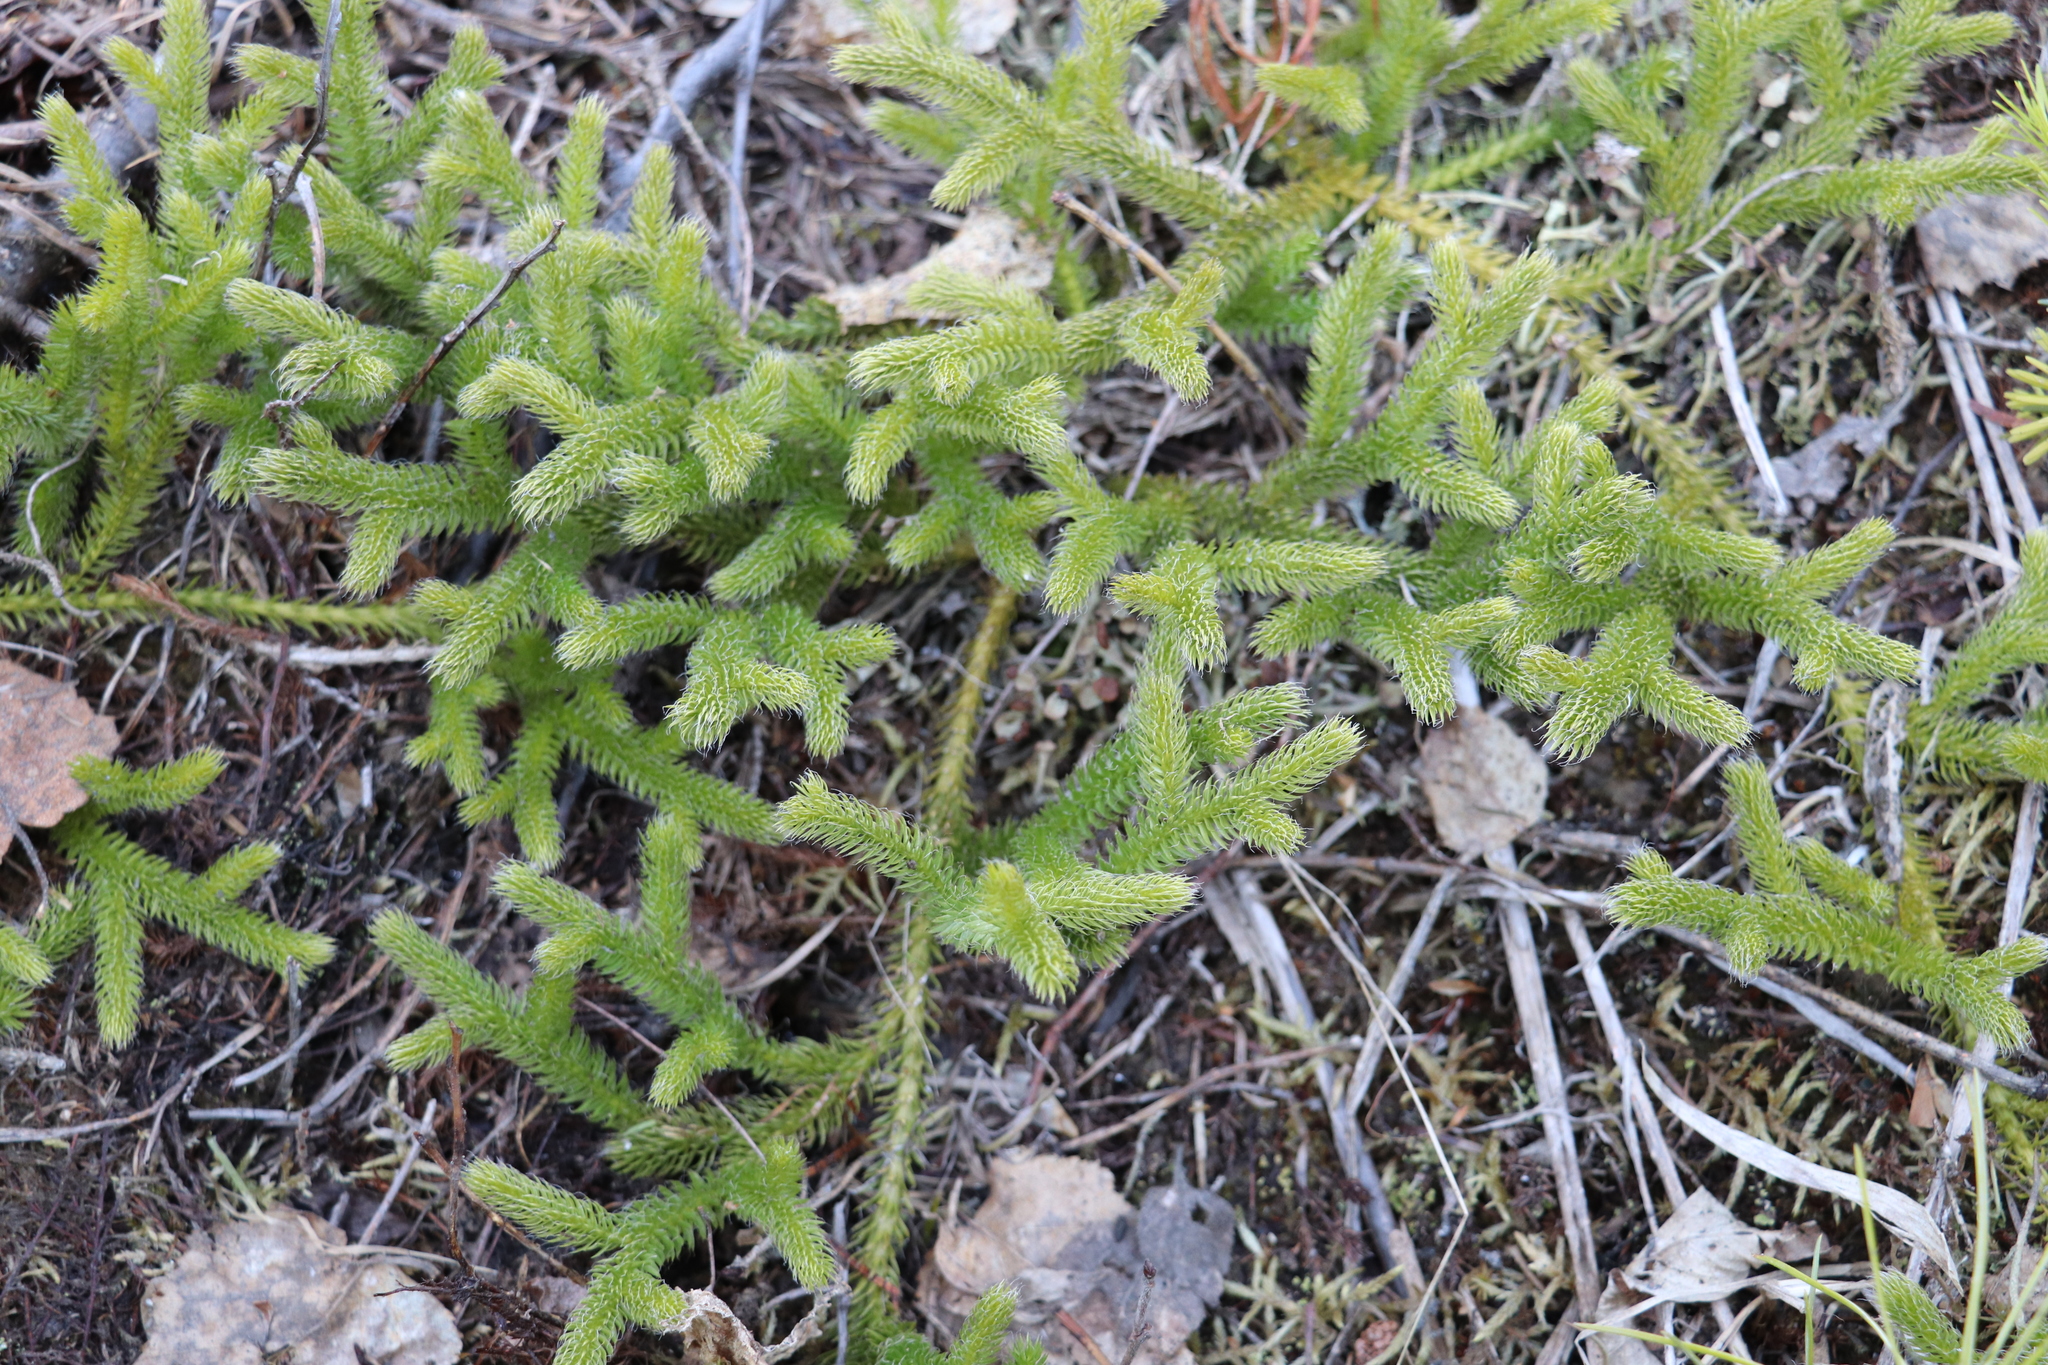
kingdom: Plantae
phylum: Tracheophyta
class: Lycopodiopsida
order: Lycopodiales
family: Lycopodiaceae
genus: Lycopodium
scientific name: Lycopodium clavatum
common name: Stag's-horn clubmoss
